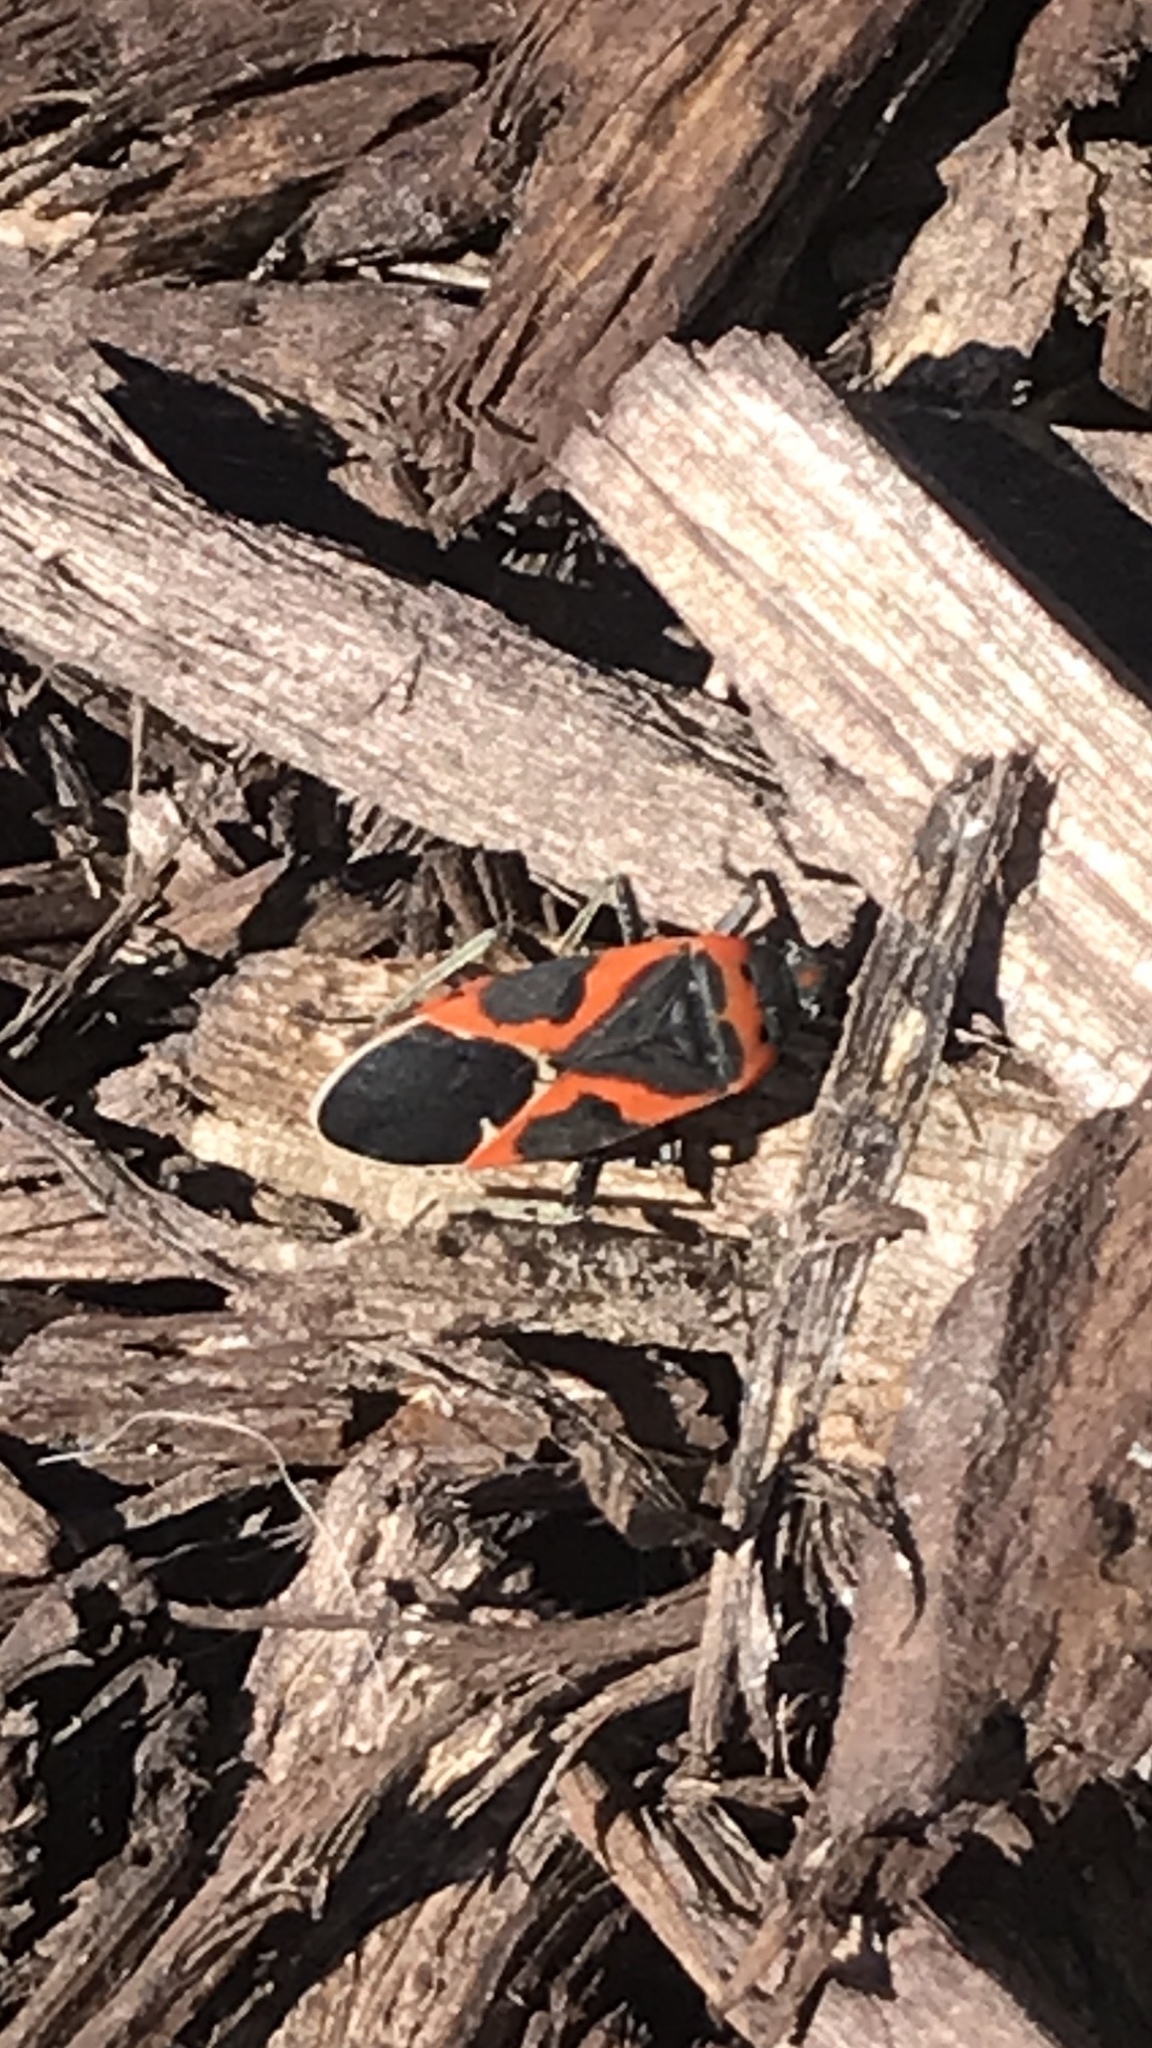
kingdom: Animalia
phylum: Arthropoda
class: Insecta
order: Hemiptera
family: Lygaeidae
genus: Lygaeus
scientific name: Lygaeus kalmii
